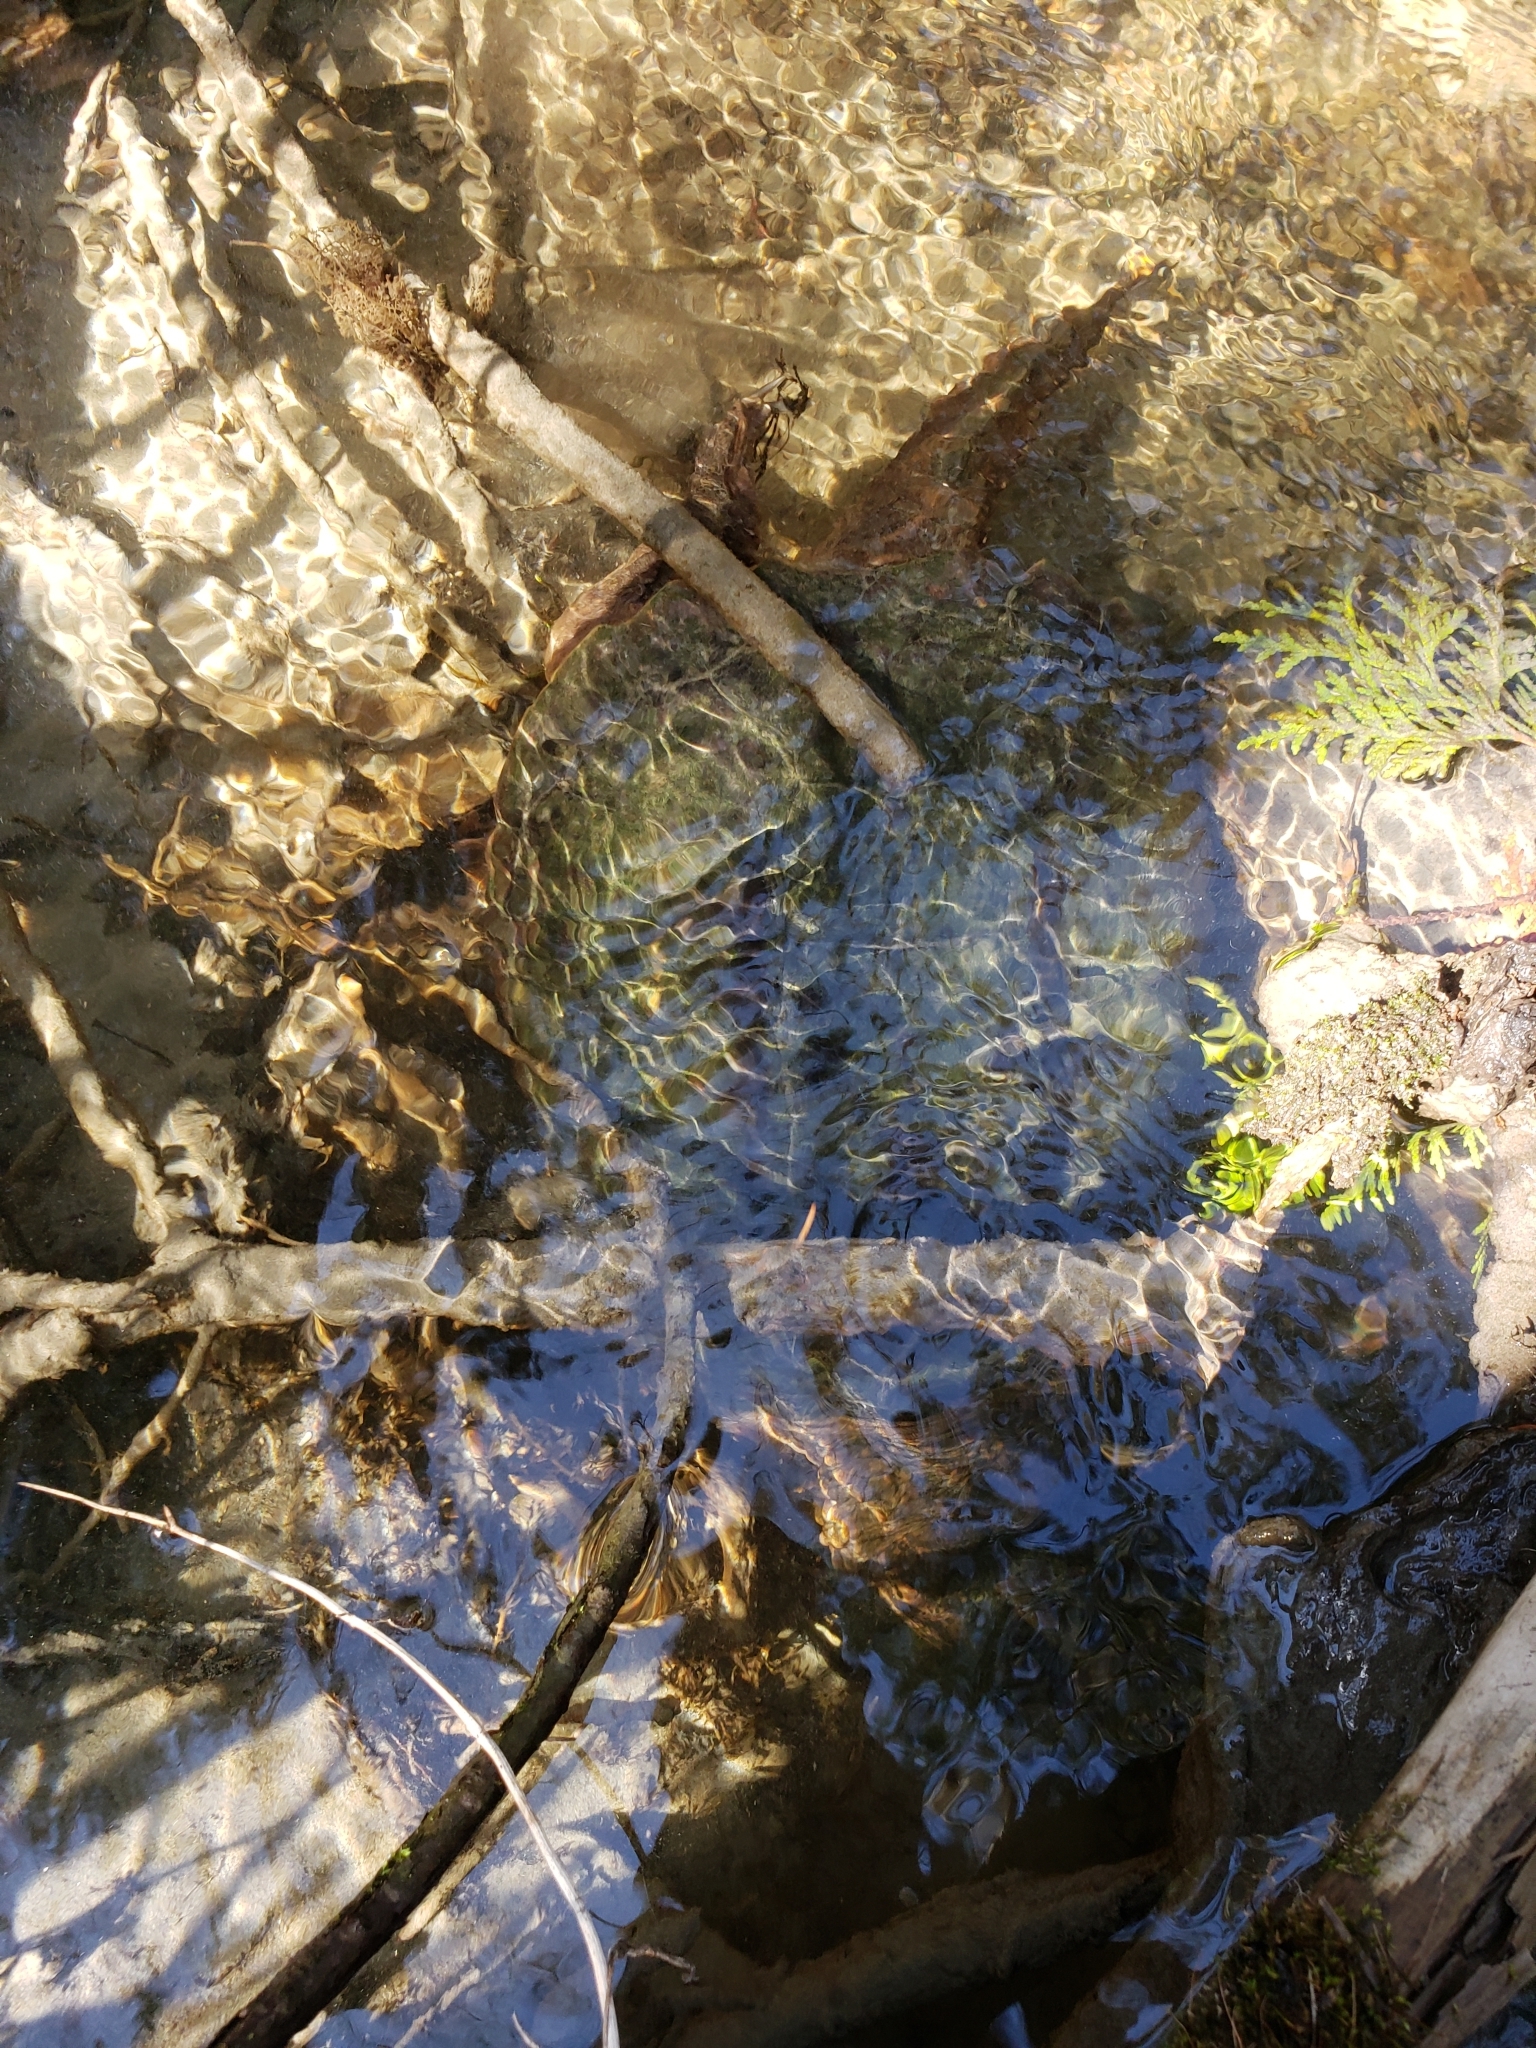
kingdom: Animalia
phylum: Chordata
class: Testudines
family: Chelydridae
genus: Chelydra
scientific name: Chelydra serpentina
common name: Common snapping turtle
